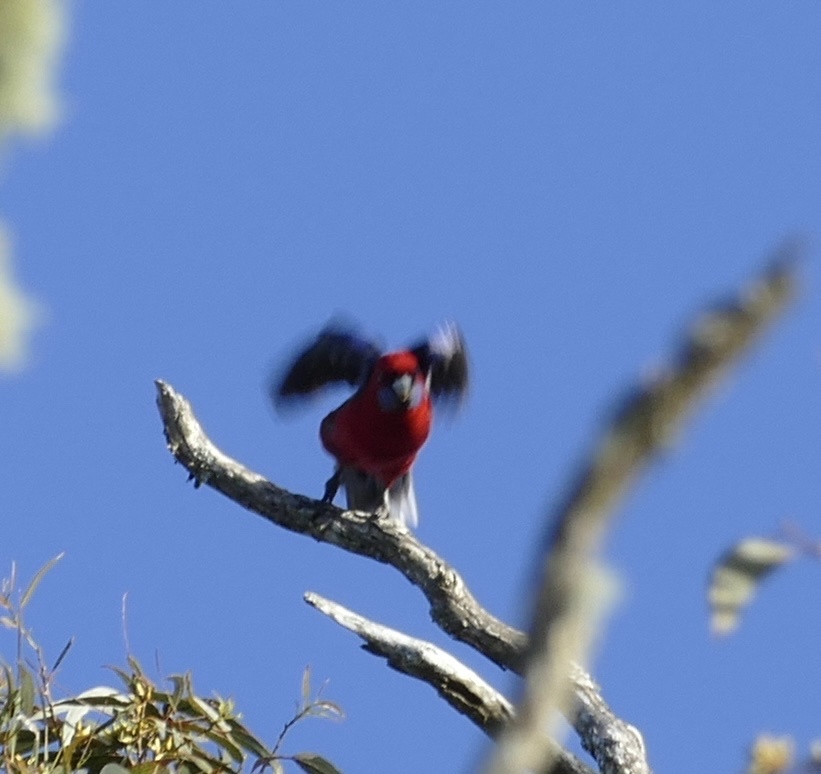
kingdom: Animalia
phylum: Chordata
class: Aves
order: Psittaciformes
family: Psittacidae
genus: Platycercus
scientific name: Platycercus elegans
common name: Crimson rosella
